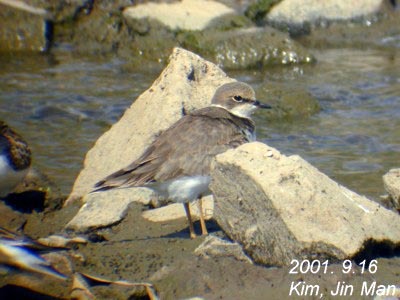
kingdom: Animalia
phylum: Chordata
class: Aves
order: Charadriiformes
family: Charadriidae
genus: Charadrius
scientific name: Charadrius dubius
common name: Little ringed plover
